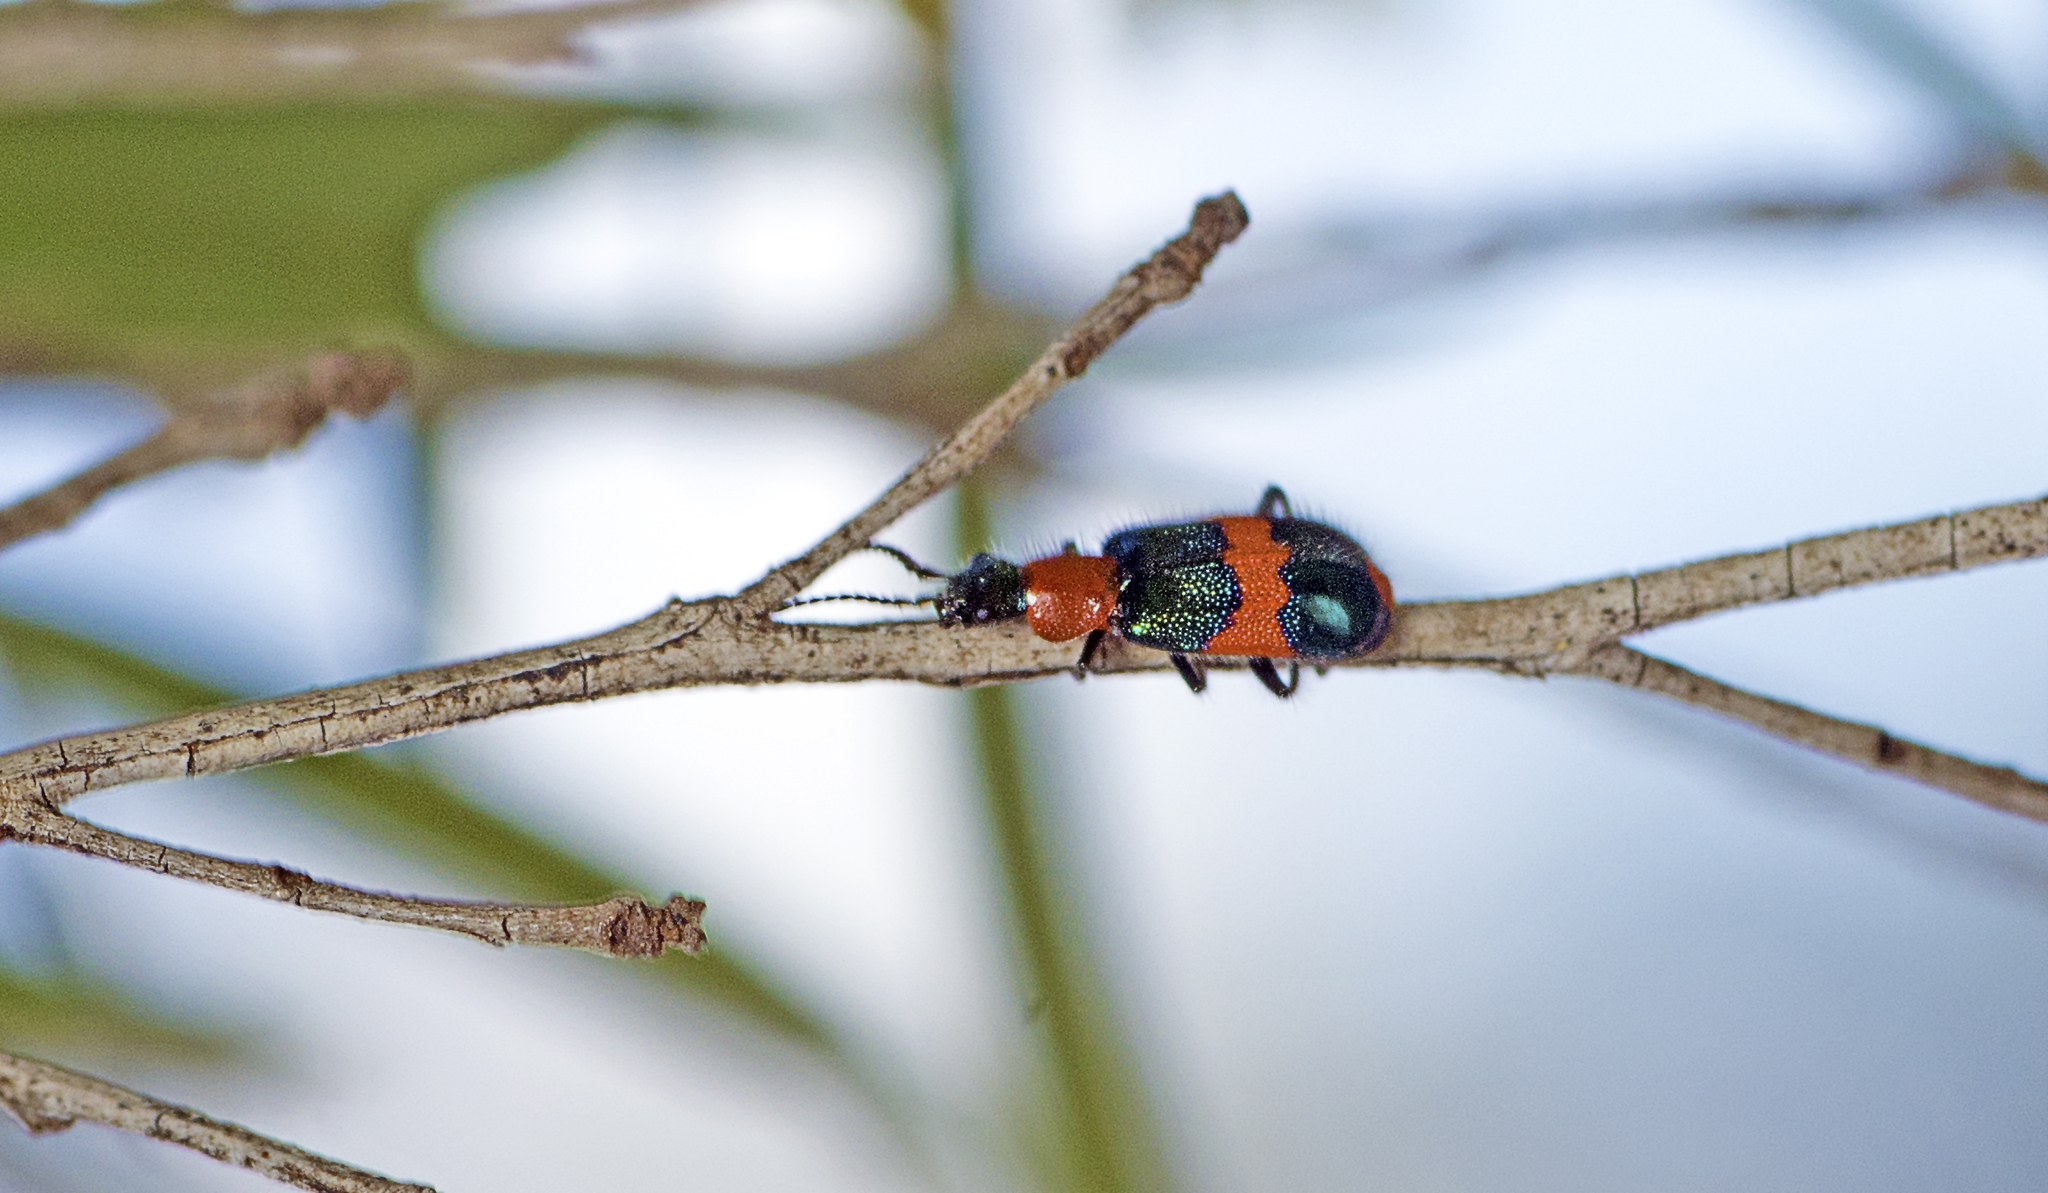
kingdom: Animalia
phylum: Arthropoda
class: Insecta
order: Coleoptera
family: Melyridae
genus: Dicranolaius
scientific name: Dicranolaius bellulus
